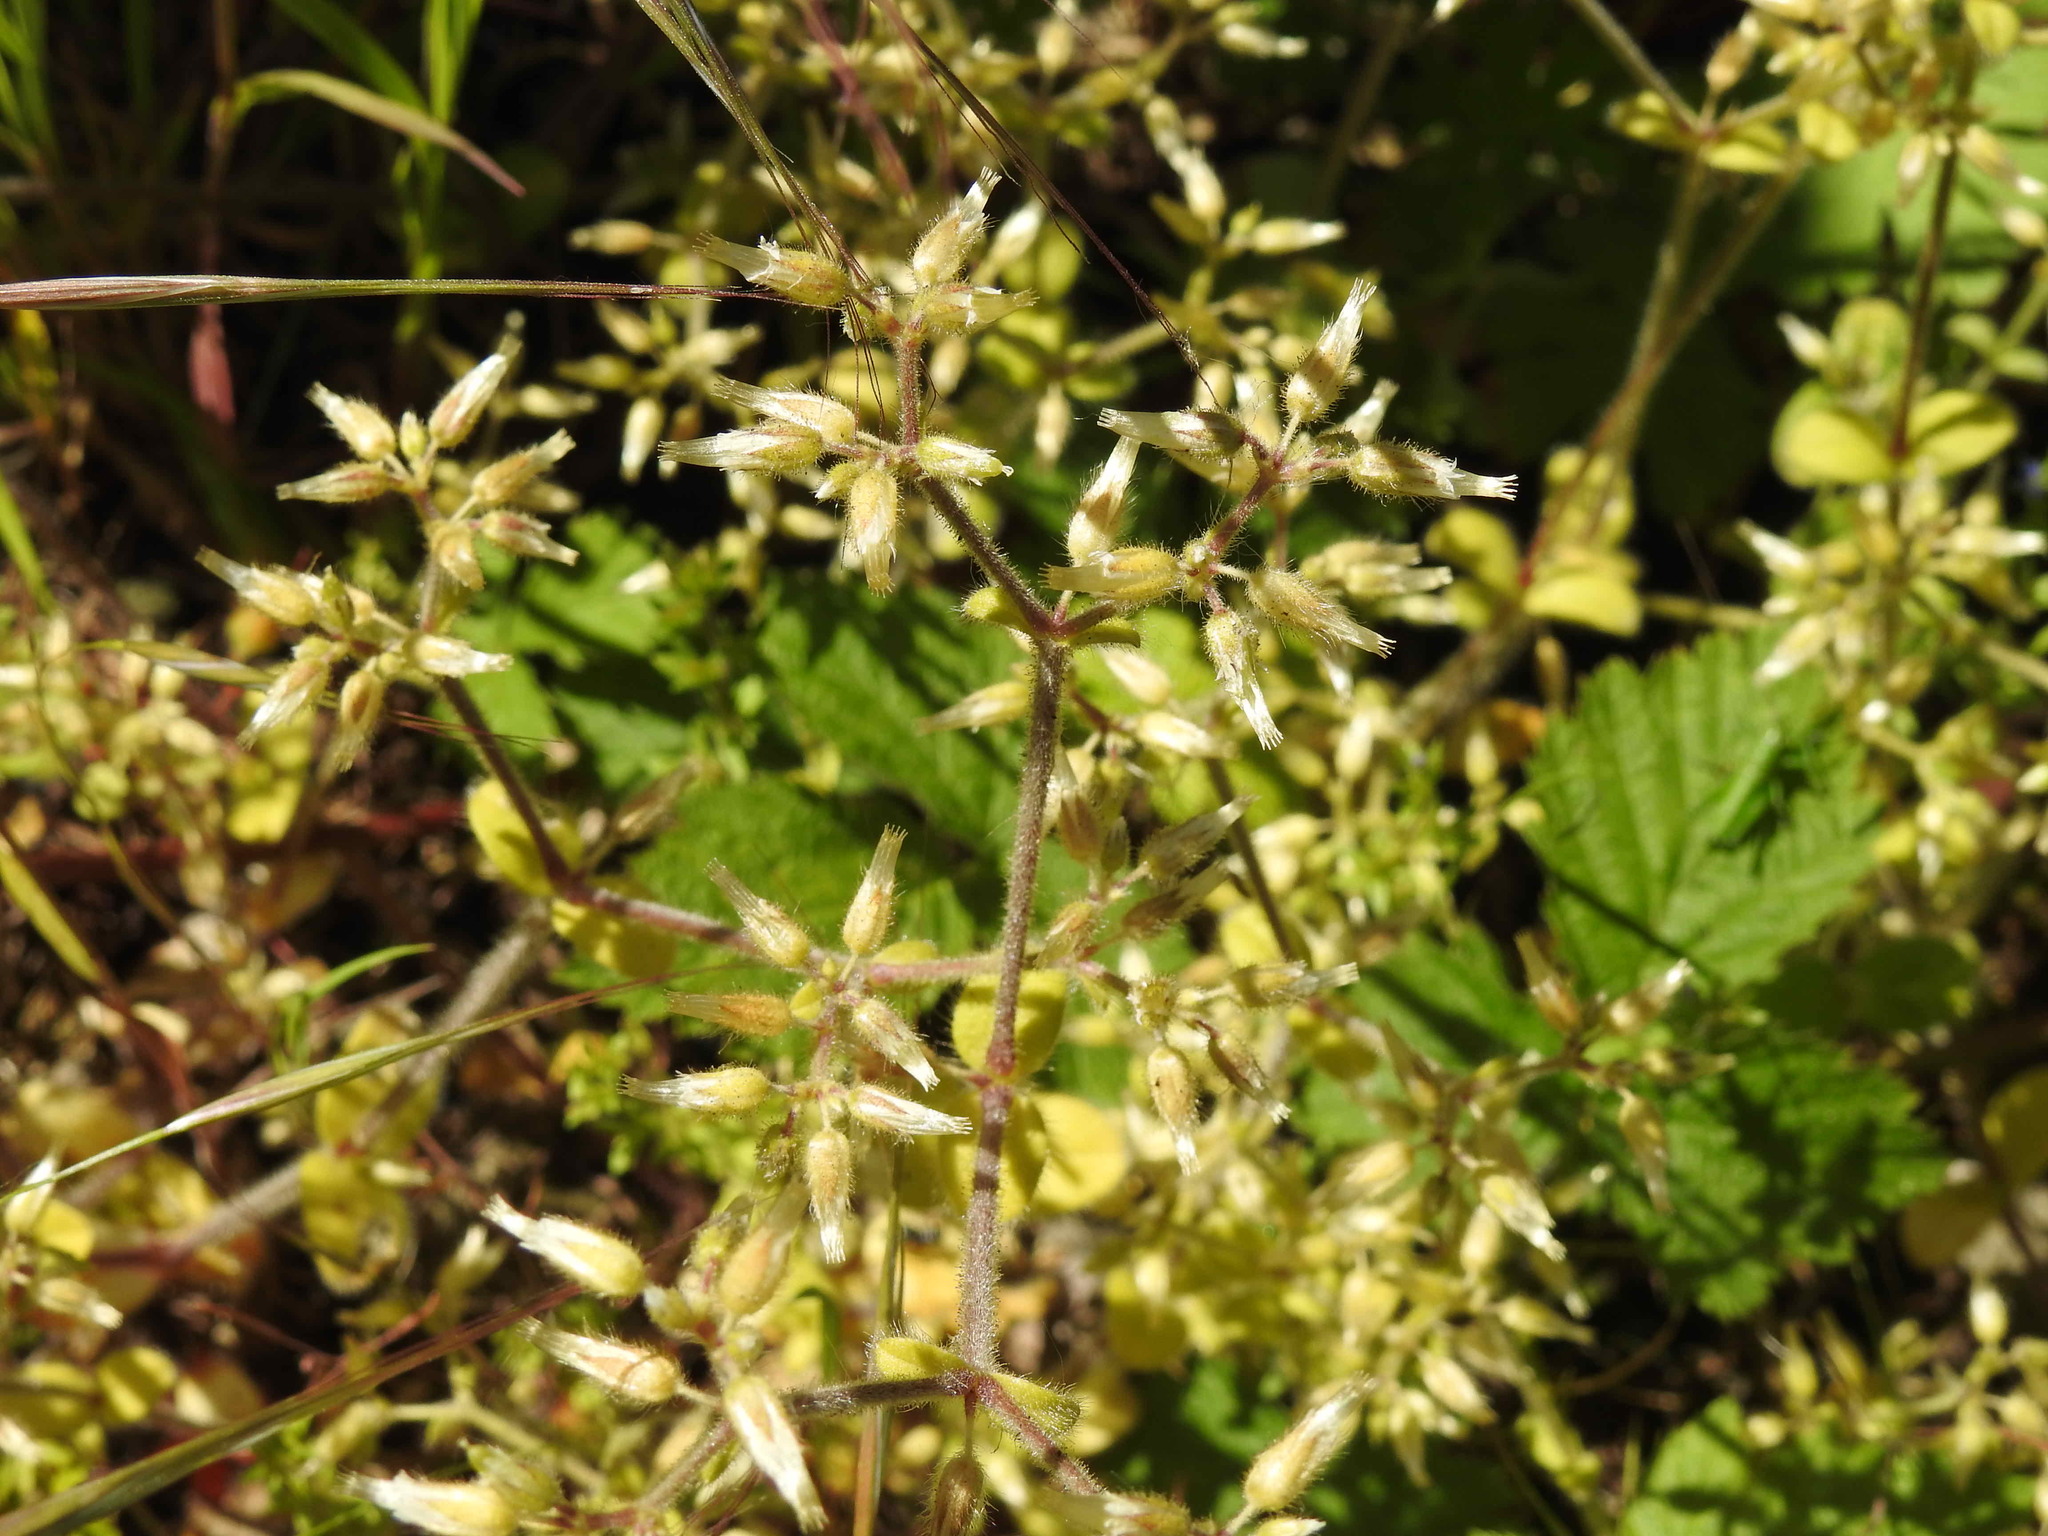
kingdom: Plantae
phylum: Tracheophyta
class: Magnoliopsida
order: Caryophyllales
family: Caryophyllaceae
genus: Cerastium
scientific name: Cerastium glomeratum
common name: Sticky chickweed
